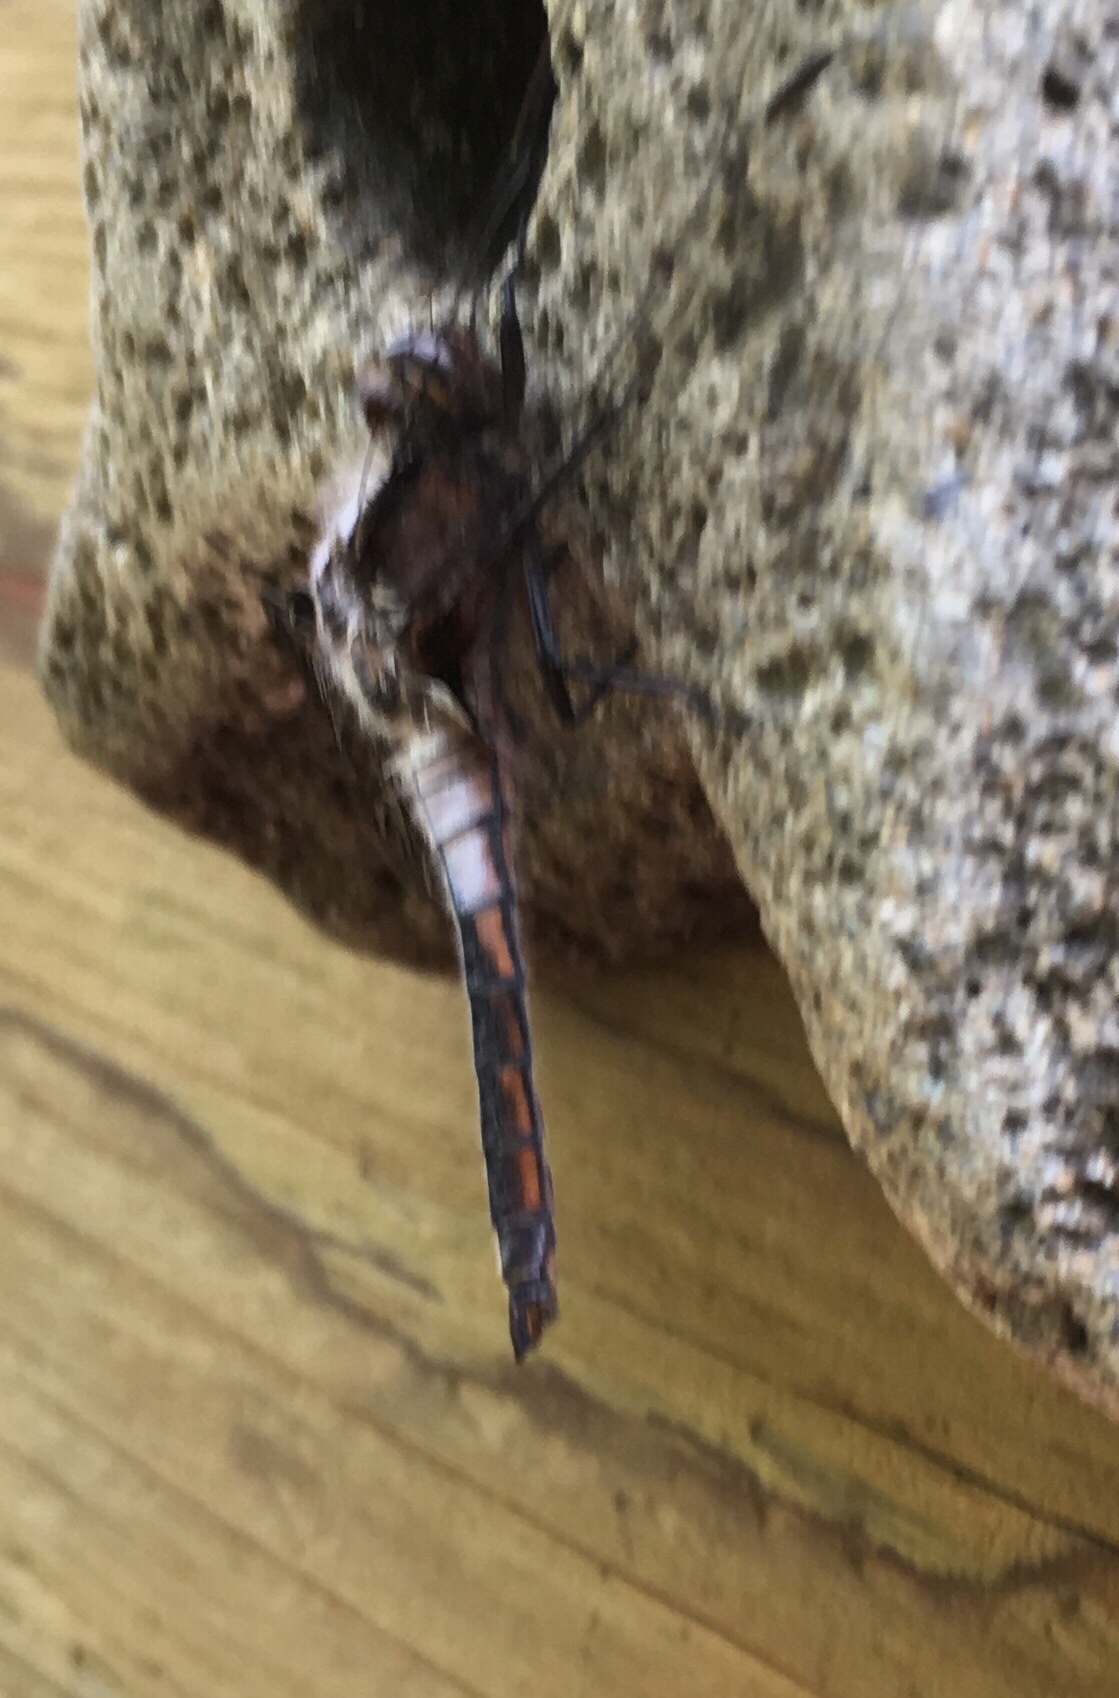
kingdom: Animalia
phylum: Arthropoda
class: Insecta
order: Odonata
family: Libellulidae
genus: Ladona
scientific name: Ladona julia
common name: Chalk-fronted corporal
